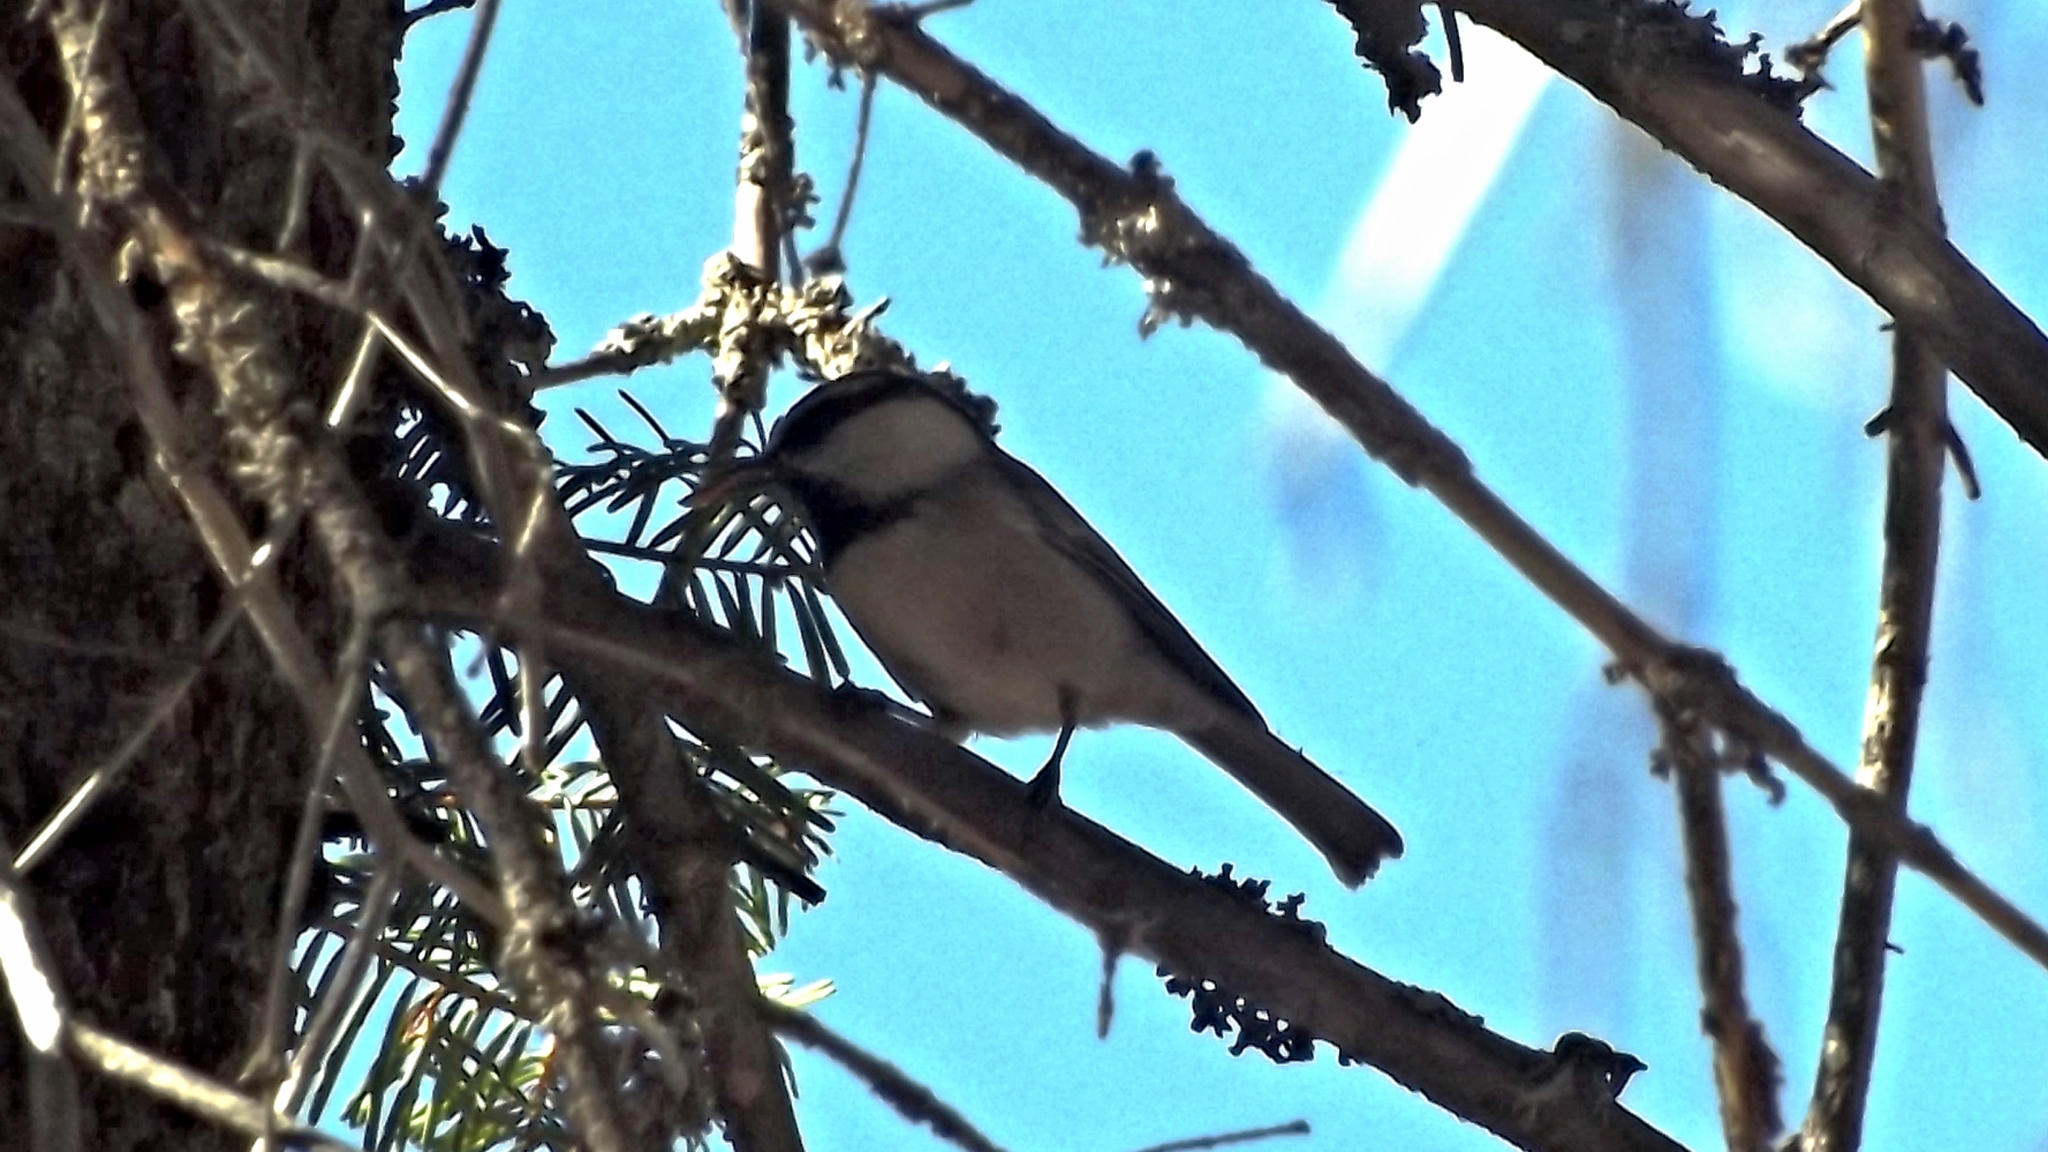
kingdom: Animalia
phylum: Chordata
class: Aves
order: Passeriformes
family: Paridae
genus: Poecile
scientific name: Poecile gambeli
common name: Mountain chickadee
